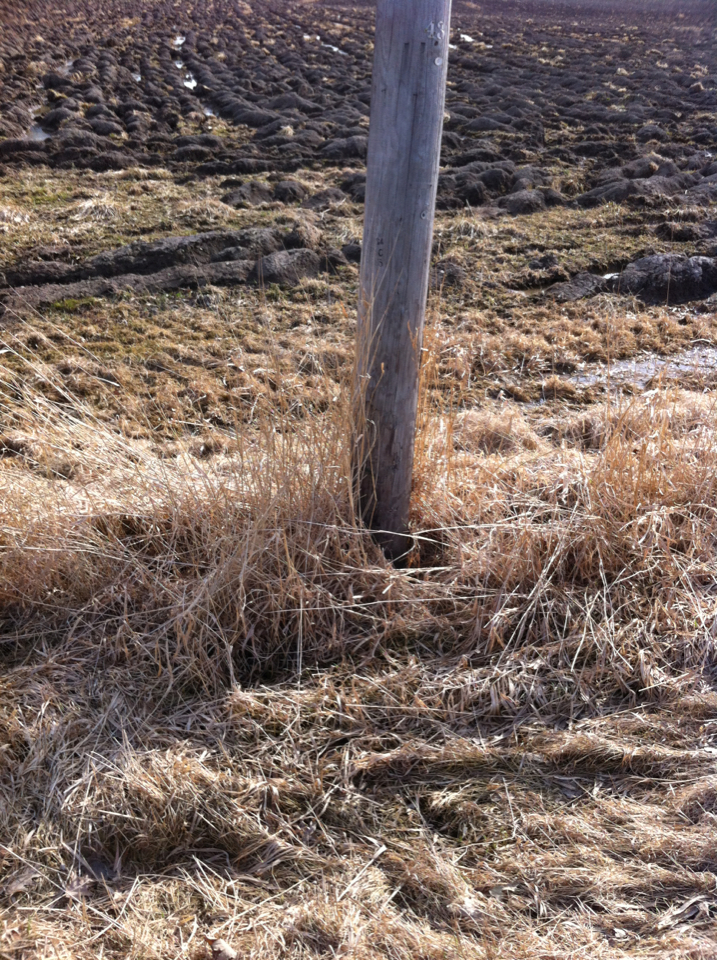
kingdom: Plantae
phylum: Tracheophyta
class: Liliopsida
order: Poales
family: Poaceae
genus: Phalaris
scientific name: Phalaris arundinacea
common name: Reed canary-grass
